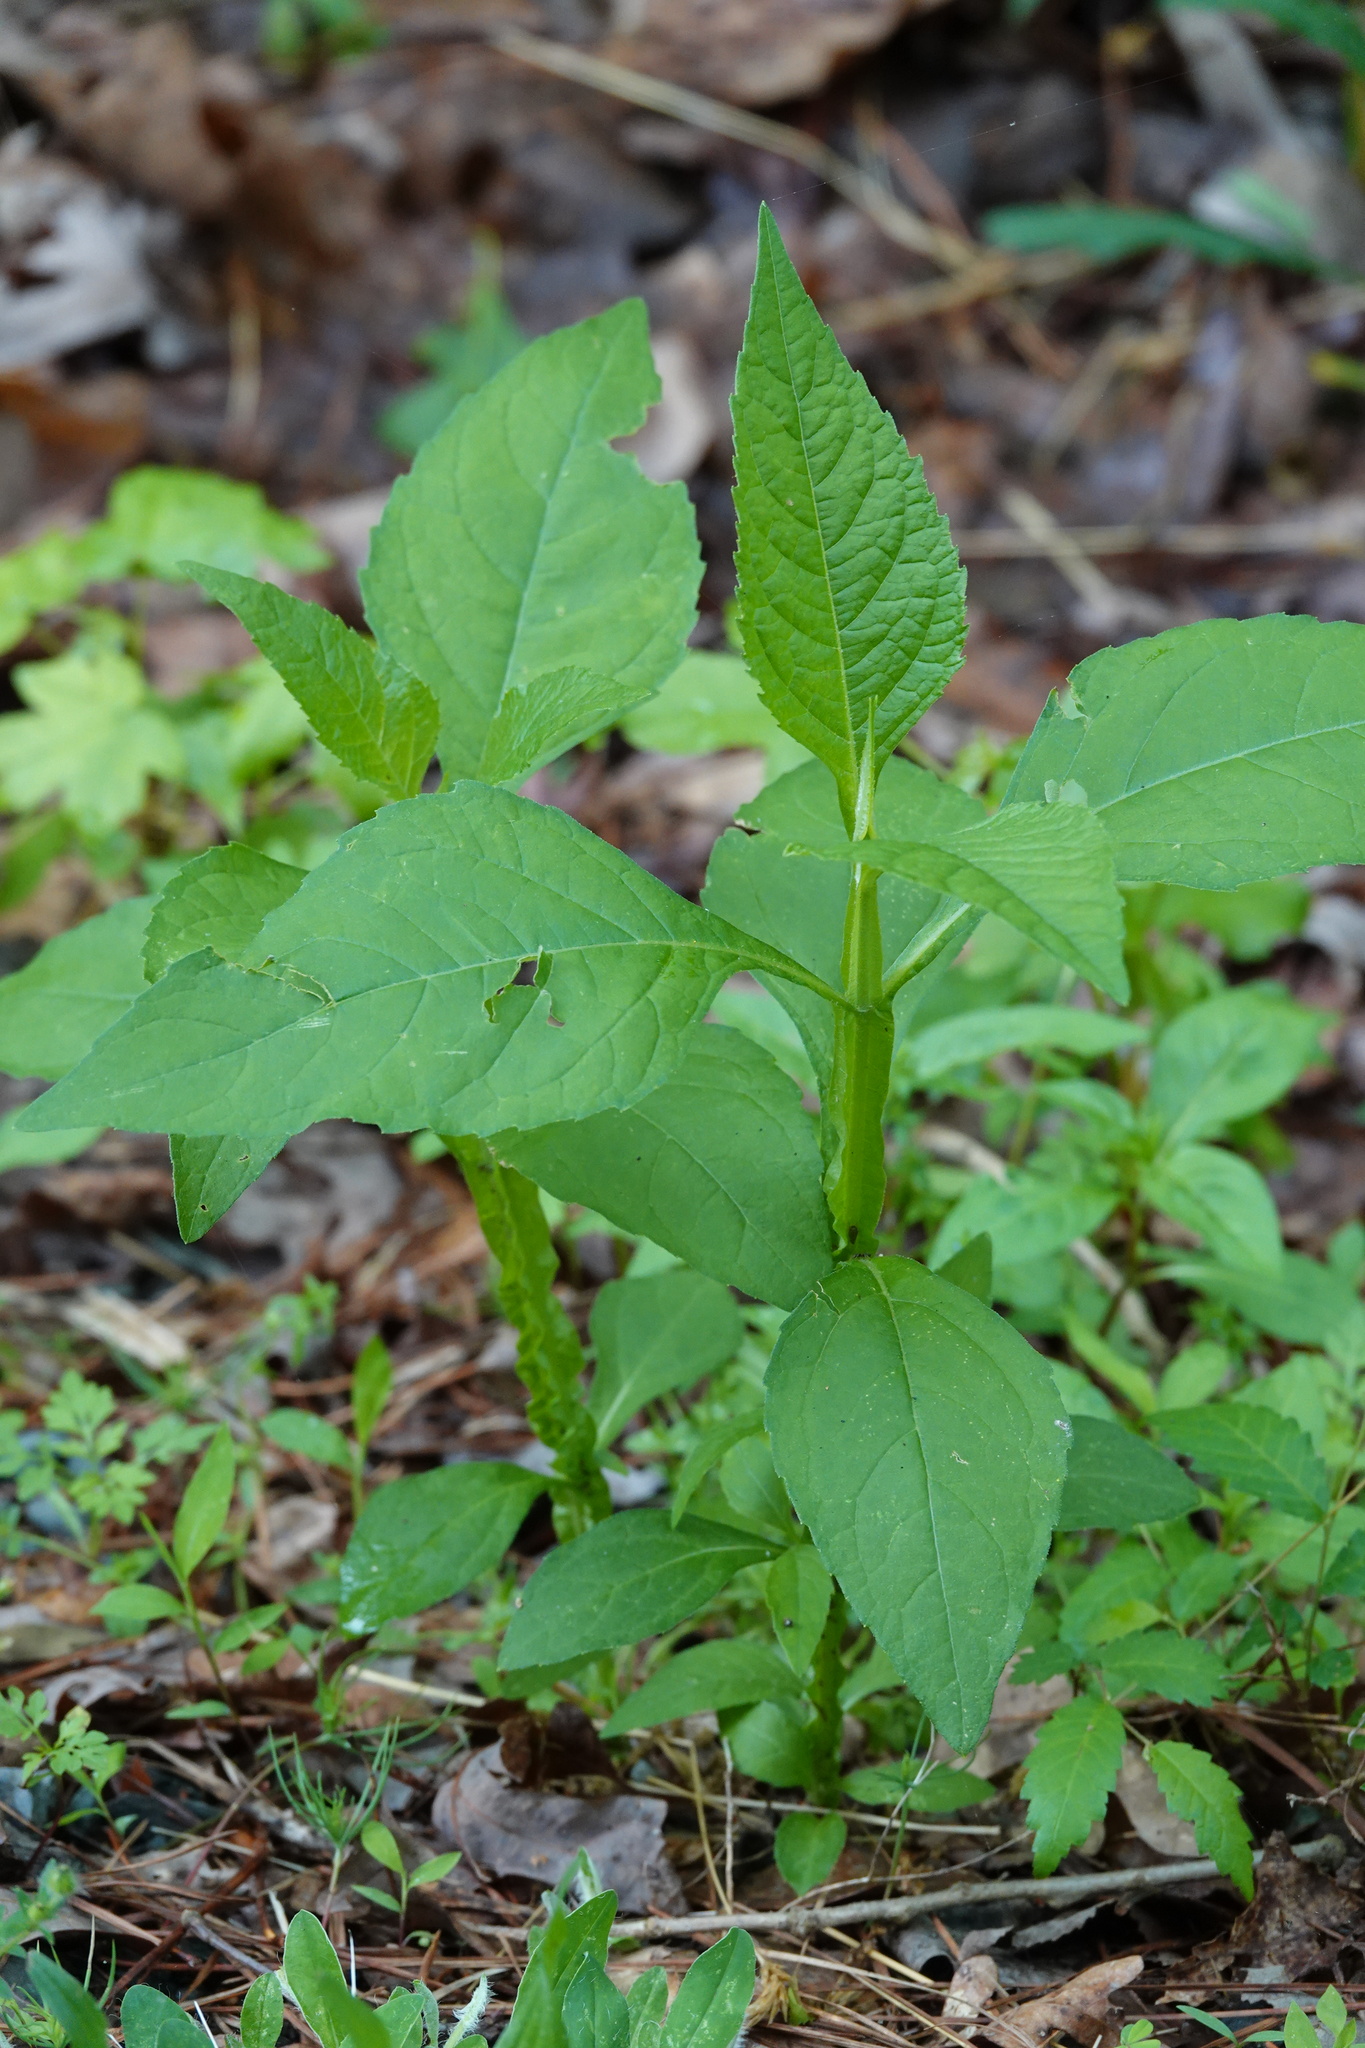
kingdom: Plantae
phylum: Tracheophyta
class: Magnoliopsida
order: Asterales
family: Asteraceae
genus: Verbesina
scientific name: Verbesina occidentalis
